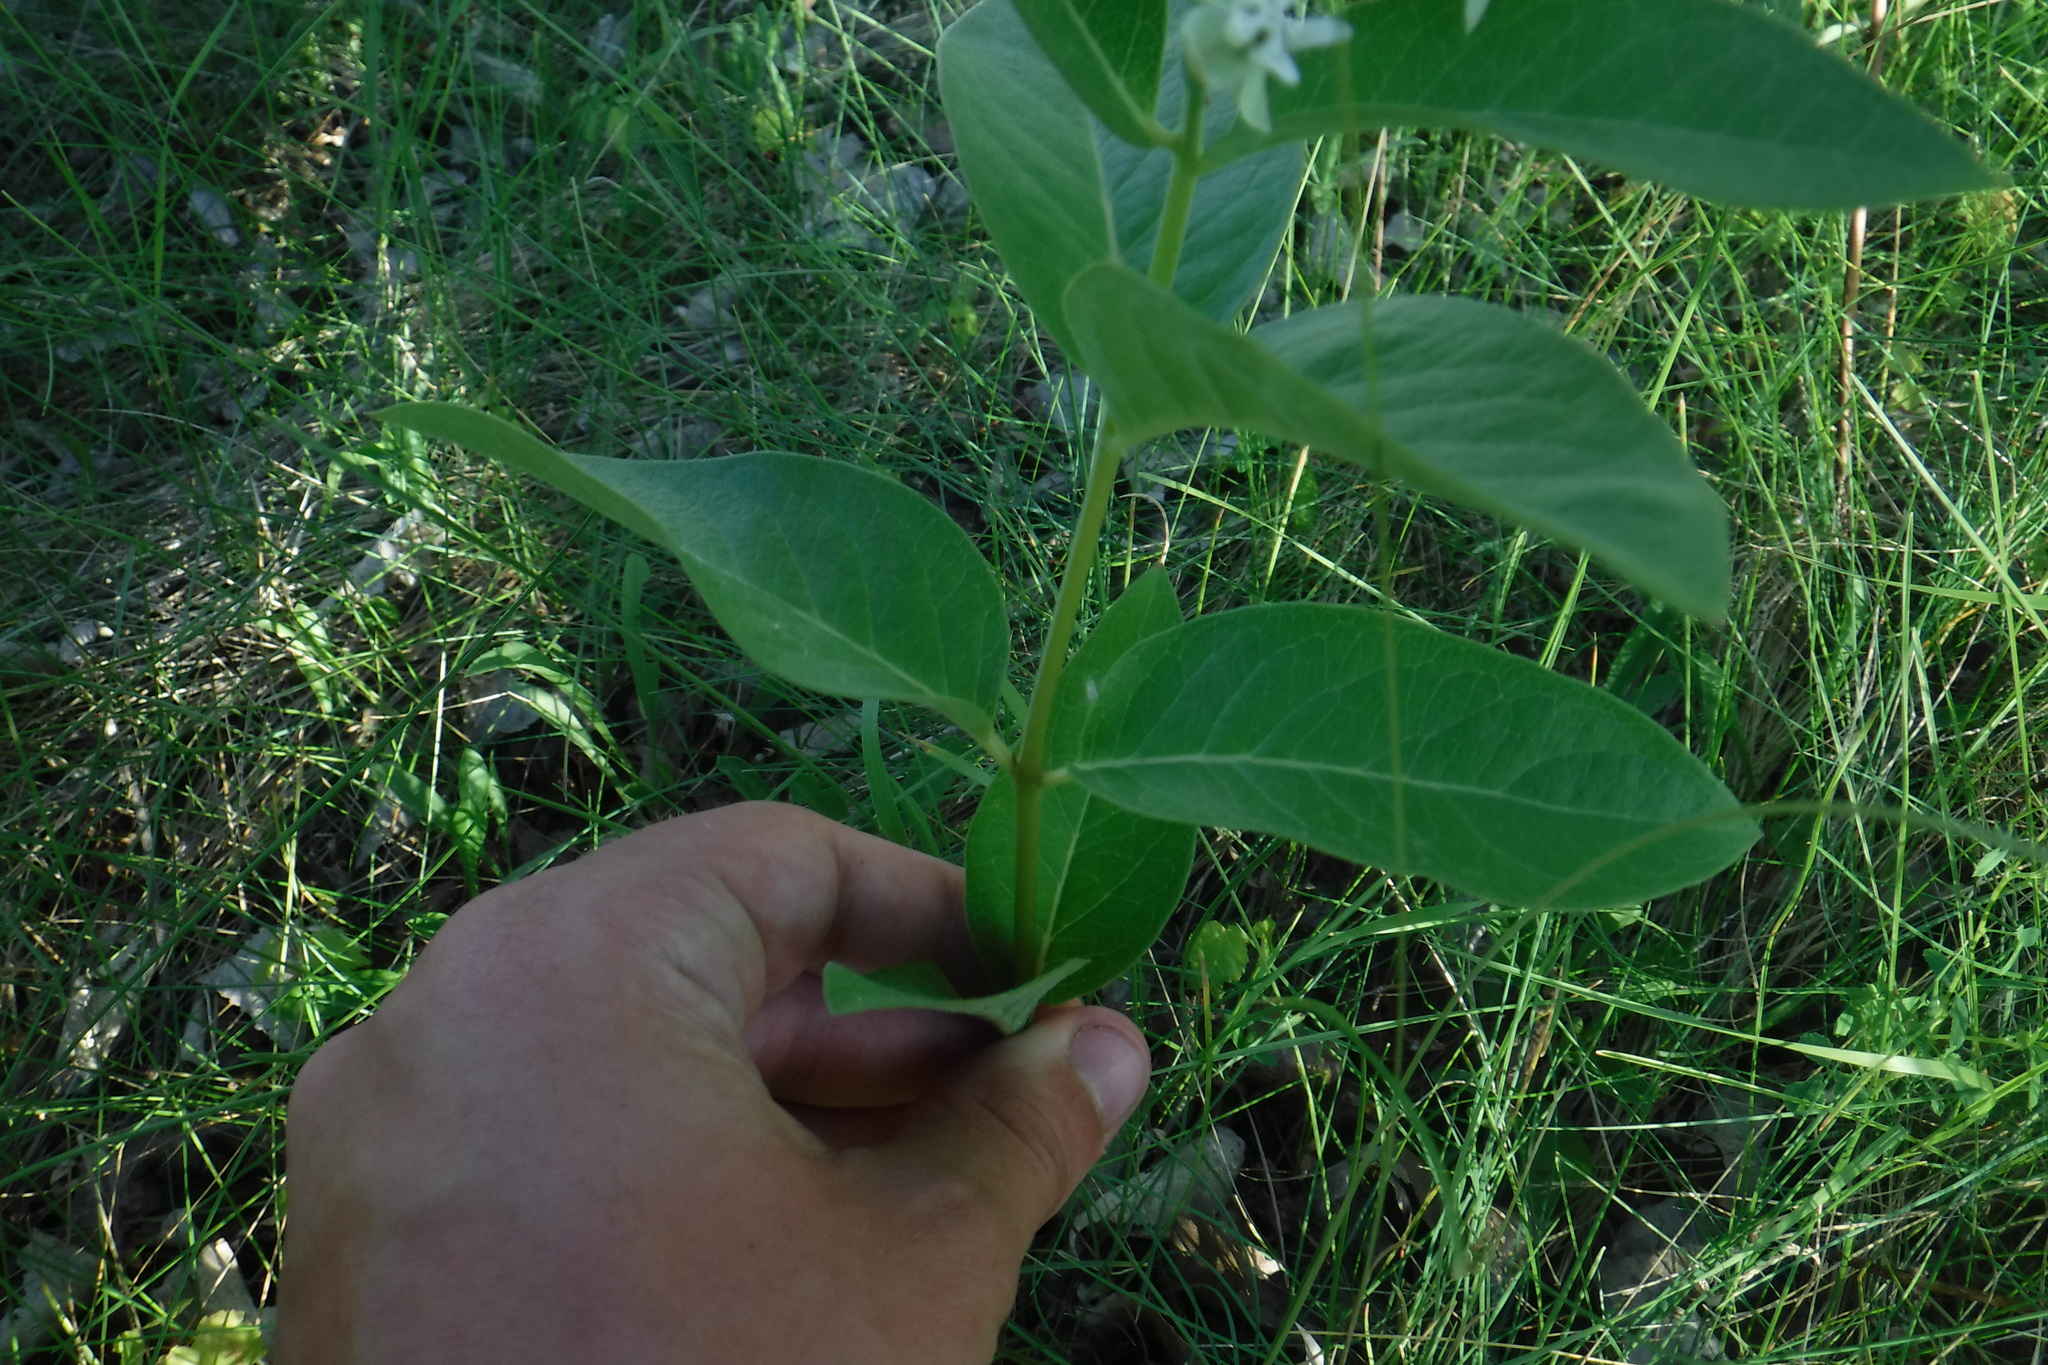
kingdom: Plantae
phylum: Tracheophyta
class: Magnoliopsida
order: Gentianales
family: Apocynaceae
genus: Asclepias
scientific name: Asclepias ovalifolia
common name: Dwarf milkweed
